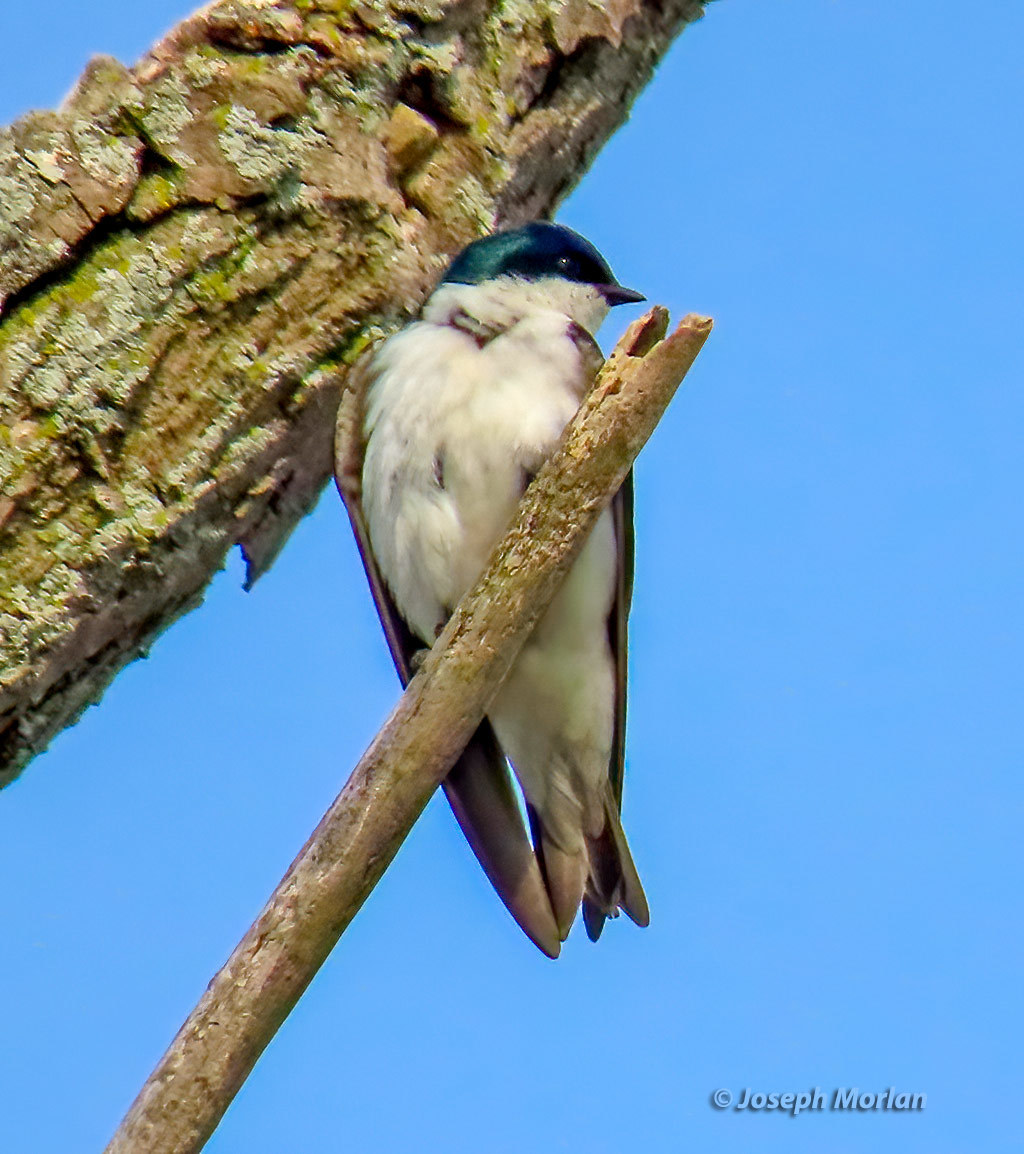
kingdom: Animalia
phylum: Chordata
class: Aves
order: Passeriformes
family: Hirundinidae
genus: Tachycineta
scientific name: Tachycineta bicolor
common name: Tree swallow
